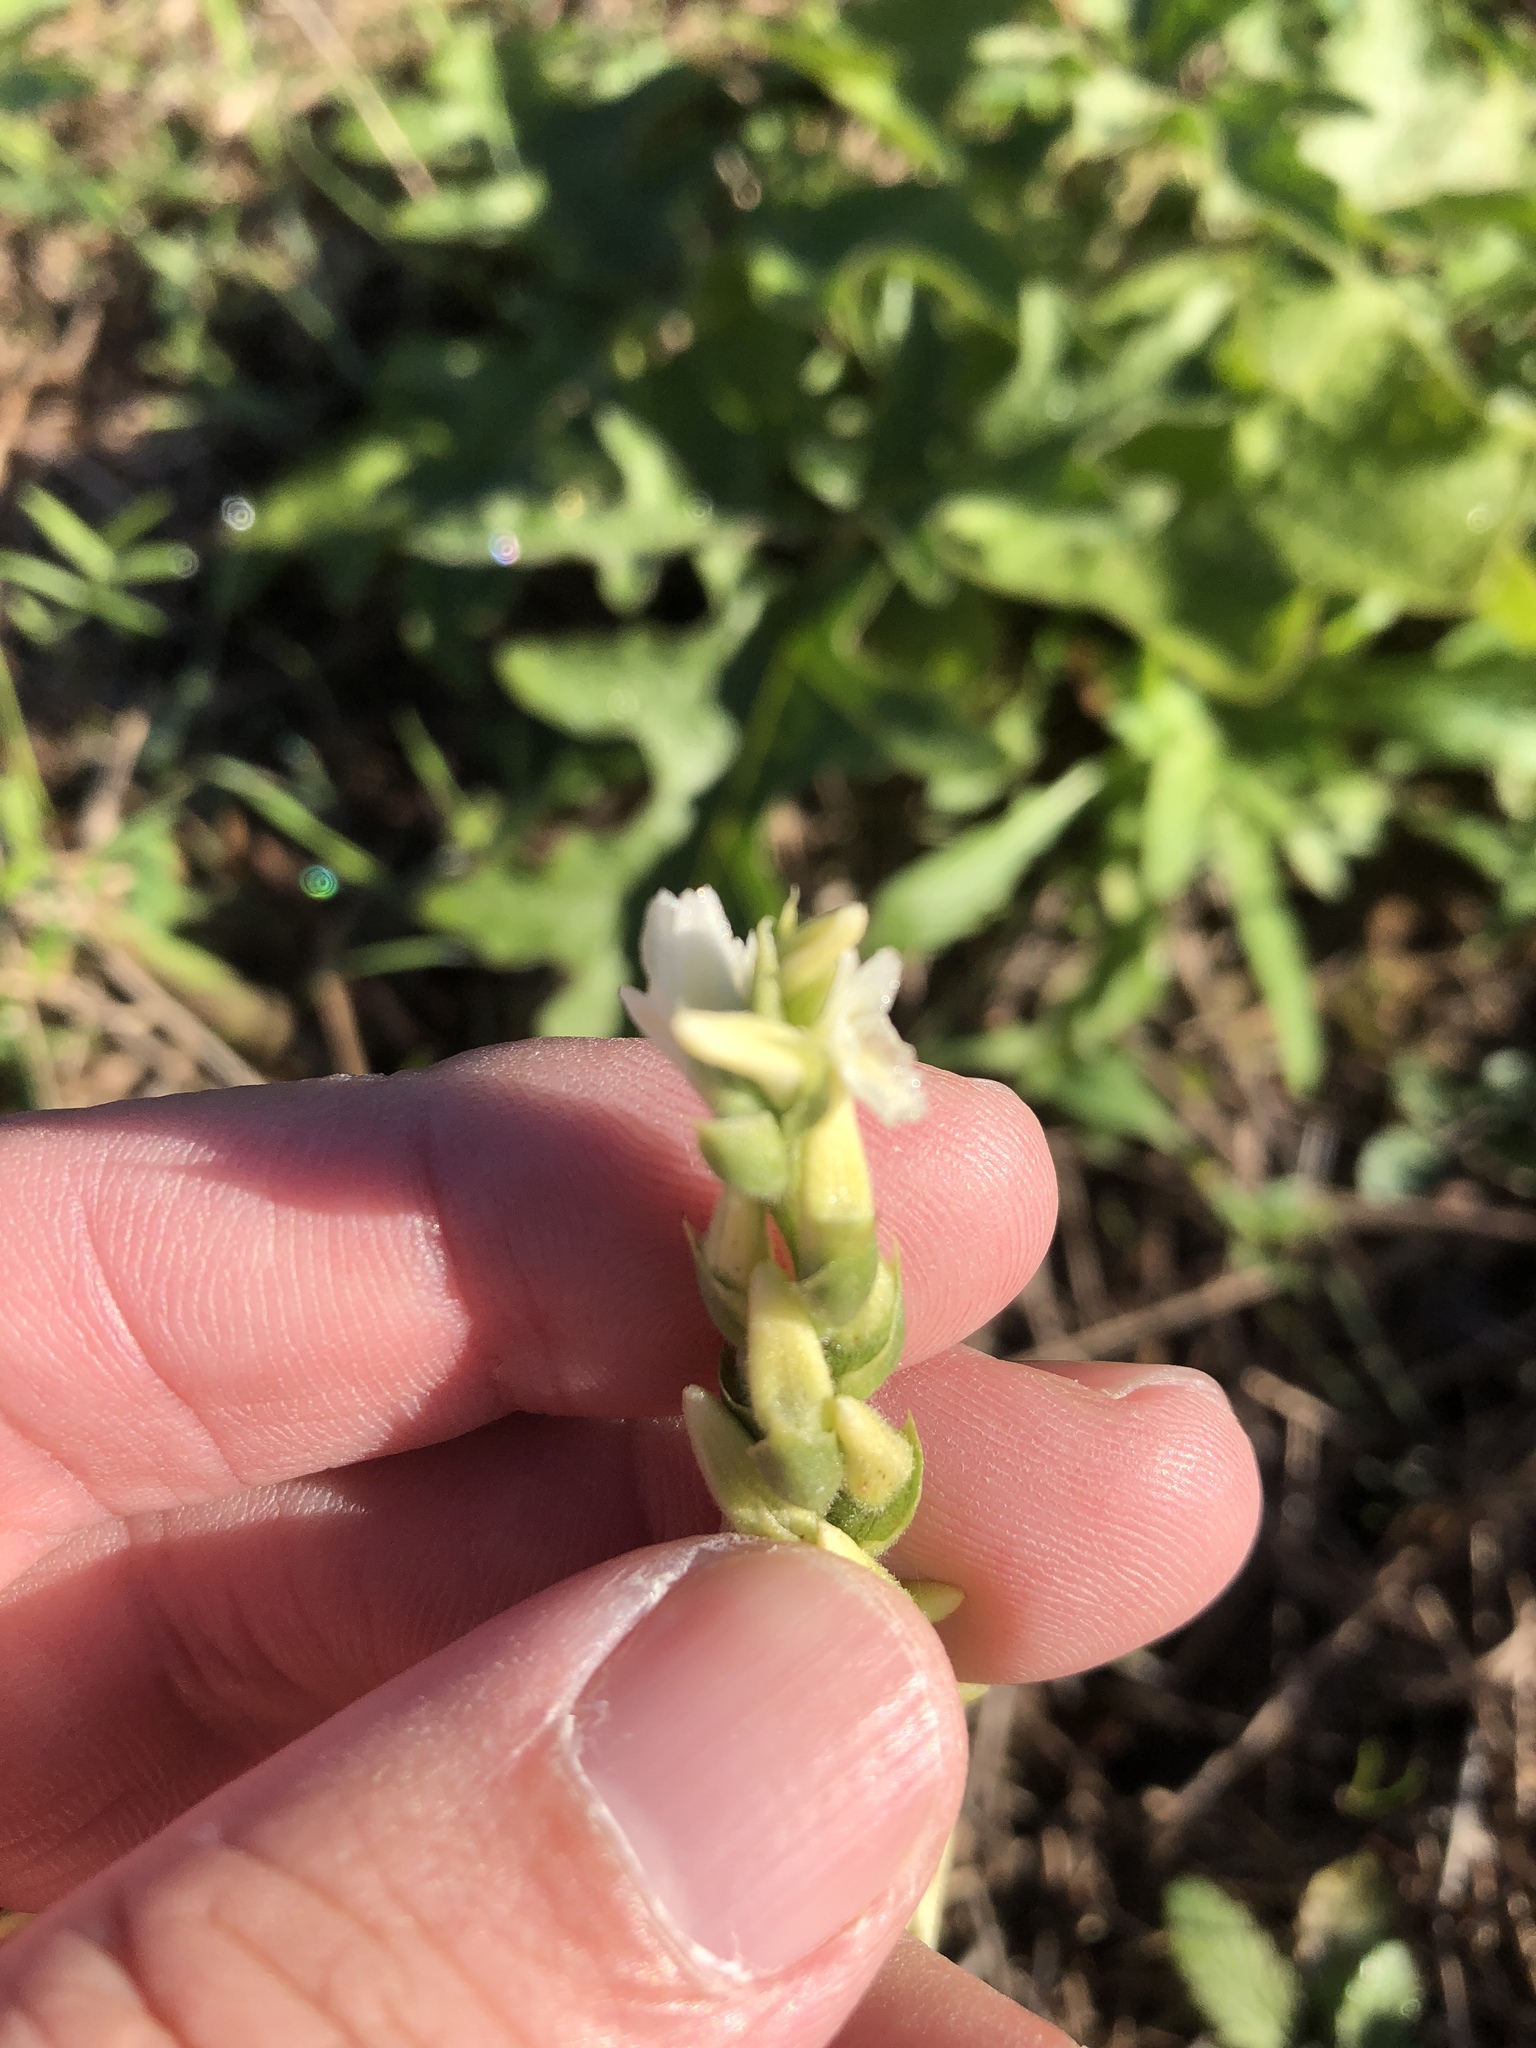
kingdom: Plantae
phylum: Tracheophyta
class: Liliopsida
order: Asparagales
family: Orchidaceae
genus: Spiranthes
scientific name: Spiranthes cernua
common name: Dropping ladies'-tresses
